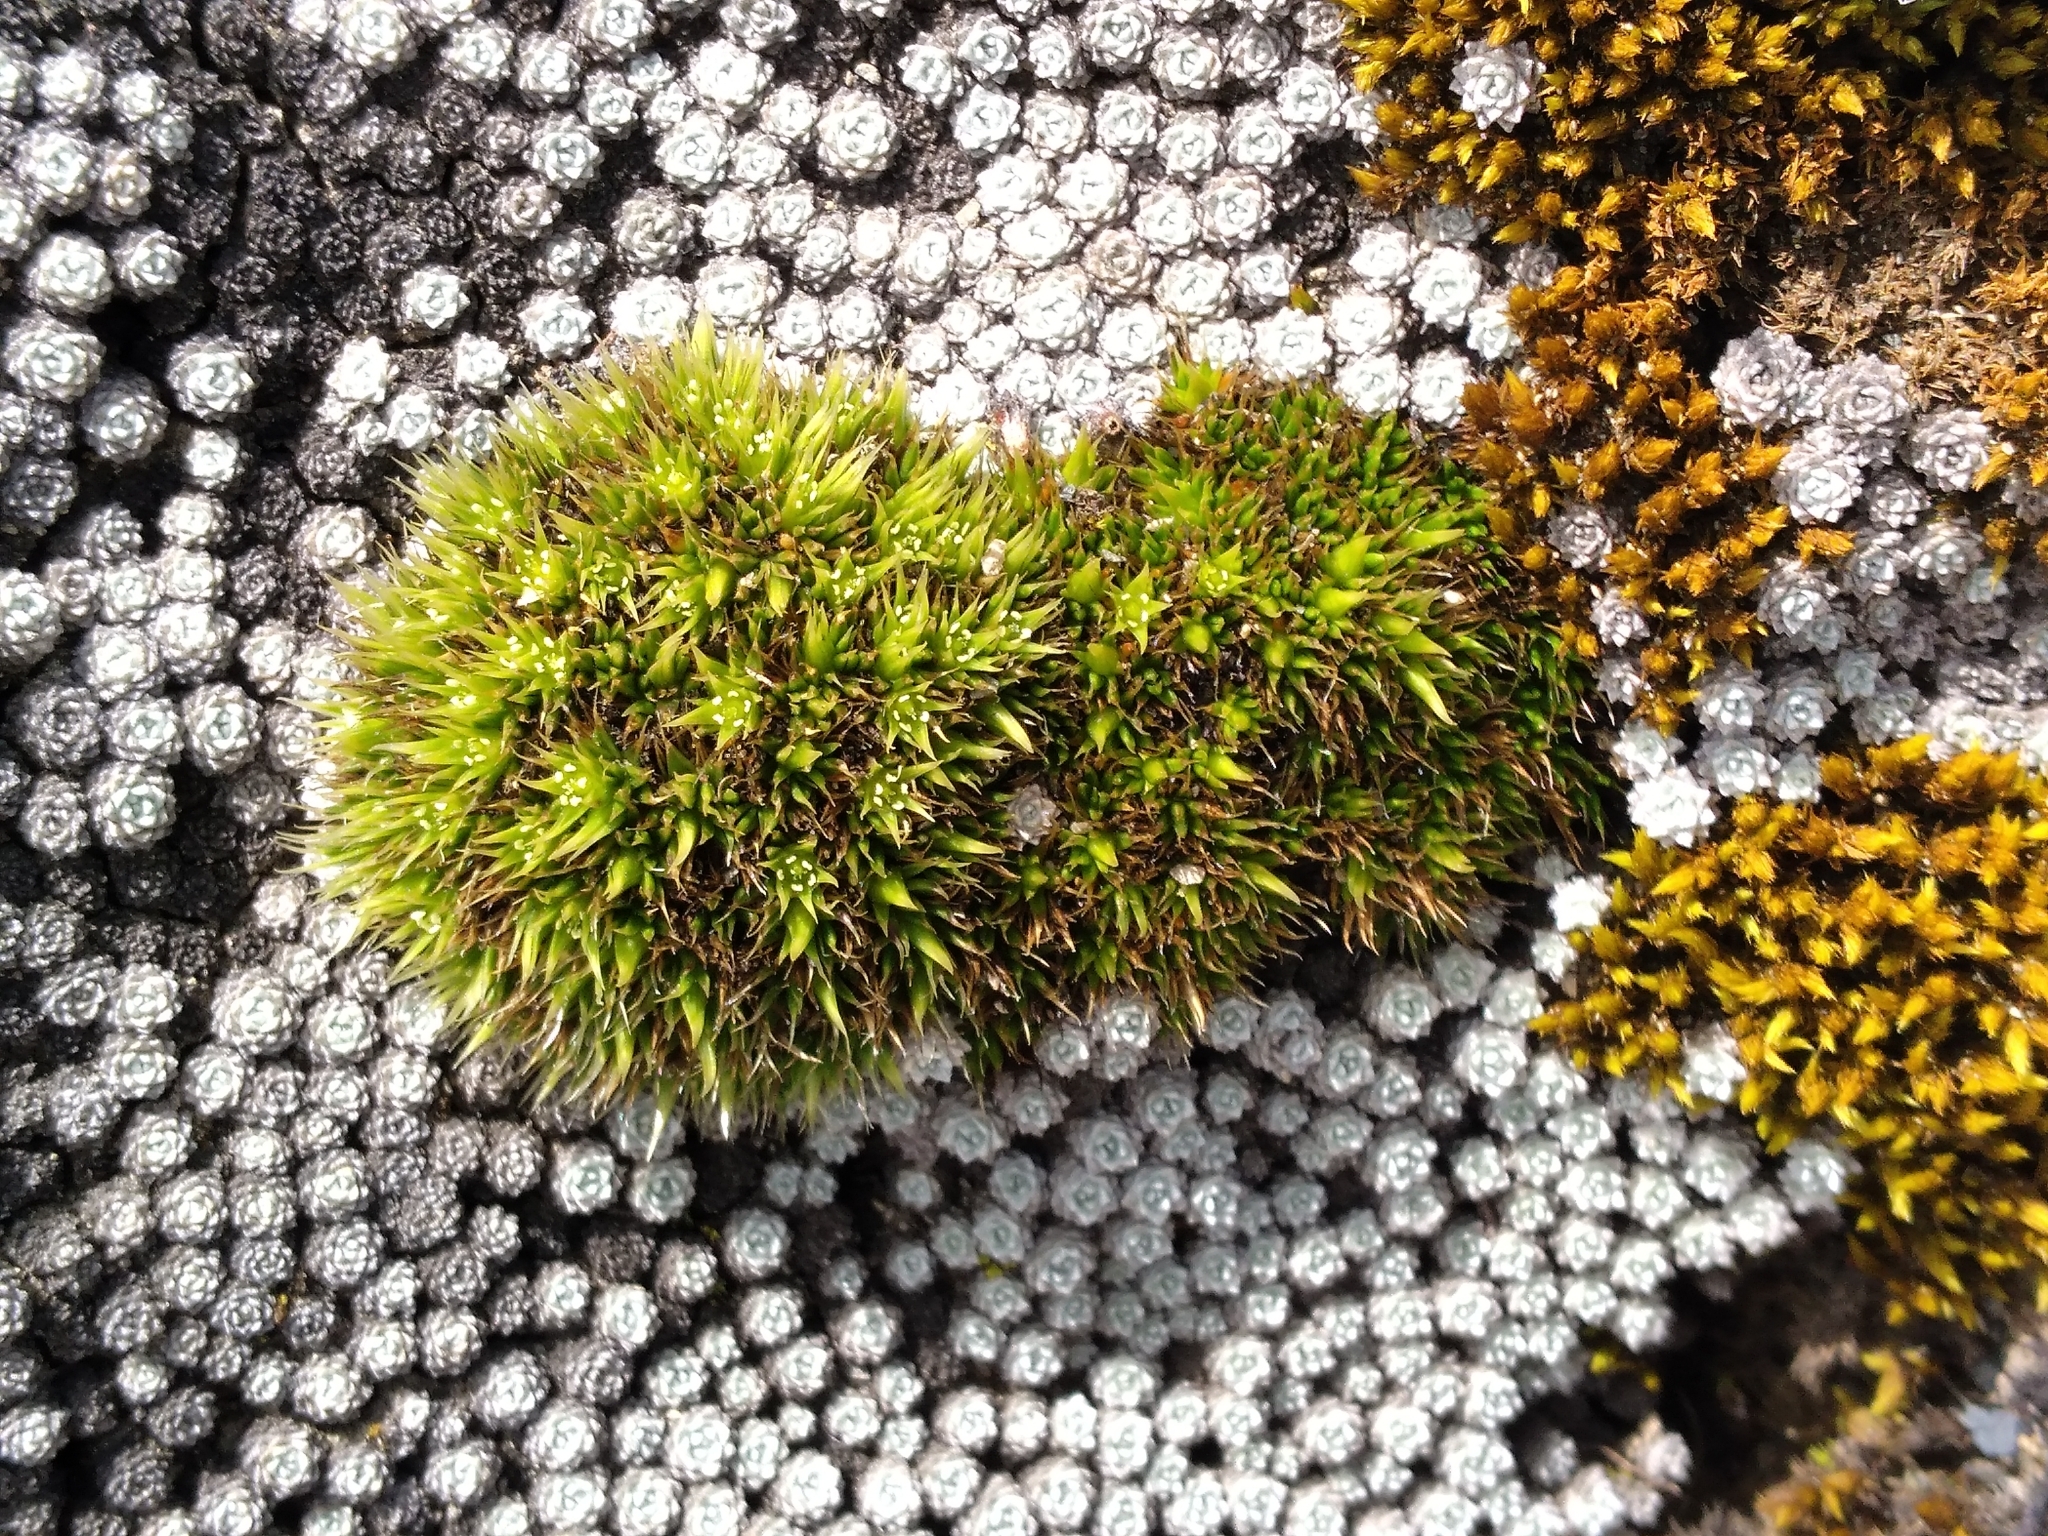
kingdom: Plantae
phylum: Tracheophyta
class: Magnoliopsida
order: Caryophyllales
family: Caryophyllaceae
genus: Colobanthus
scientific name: Colobanthus buchananii
